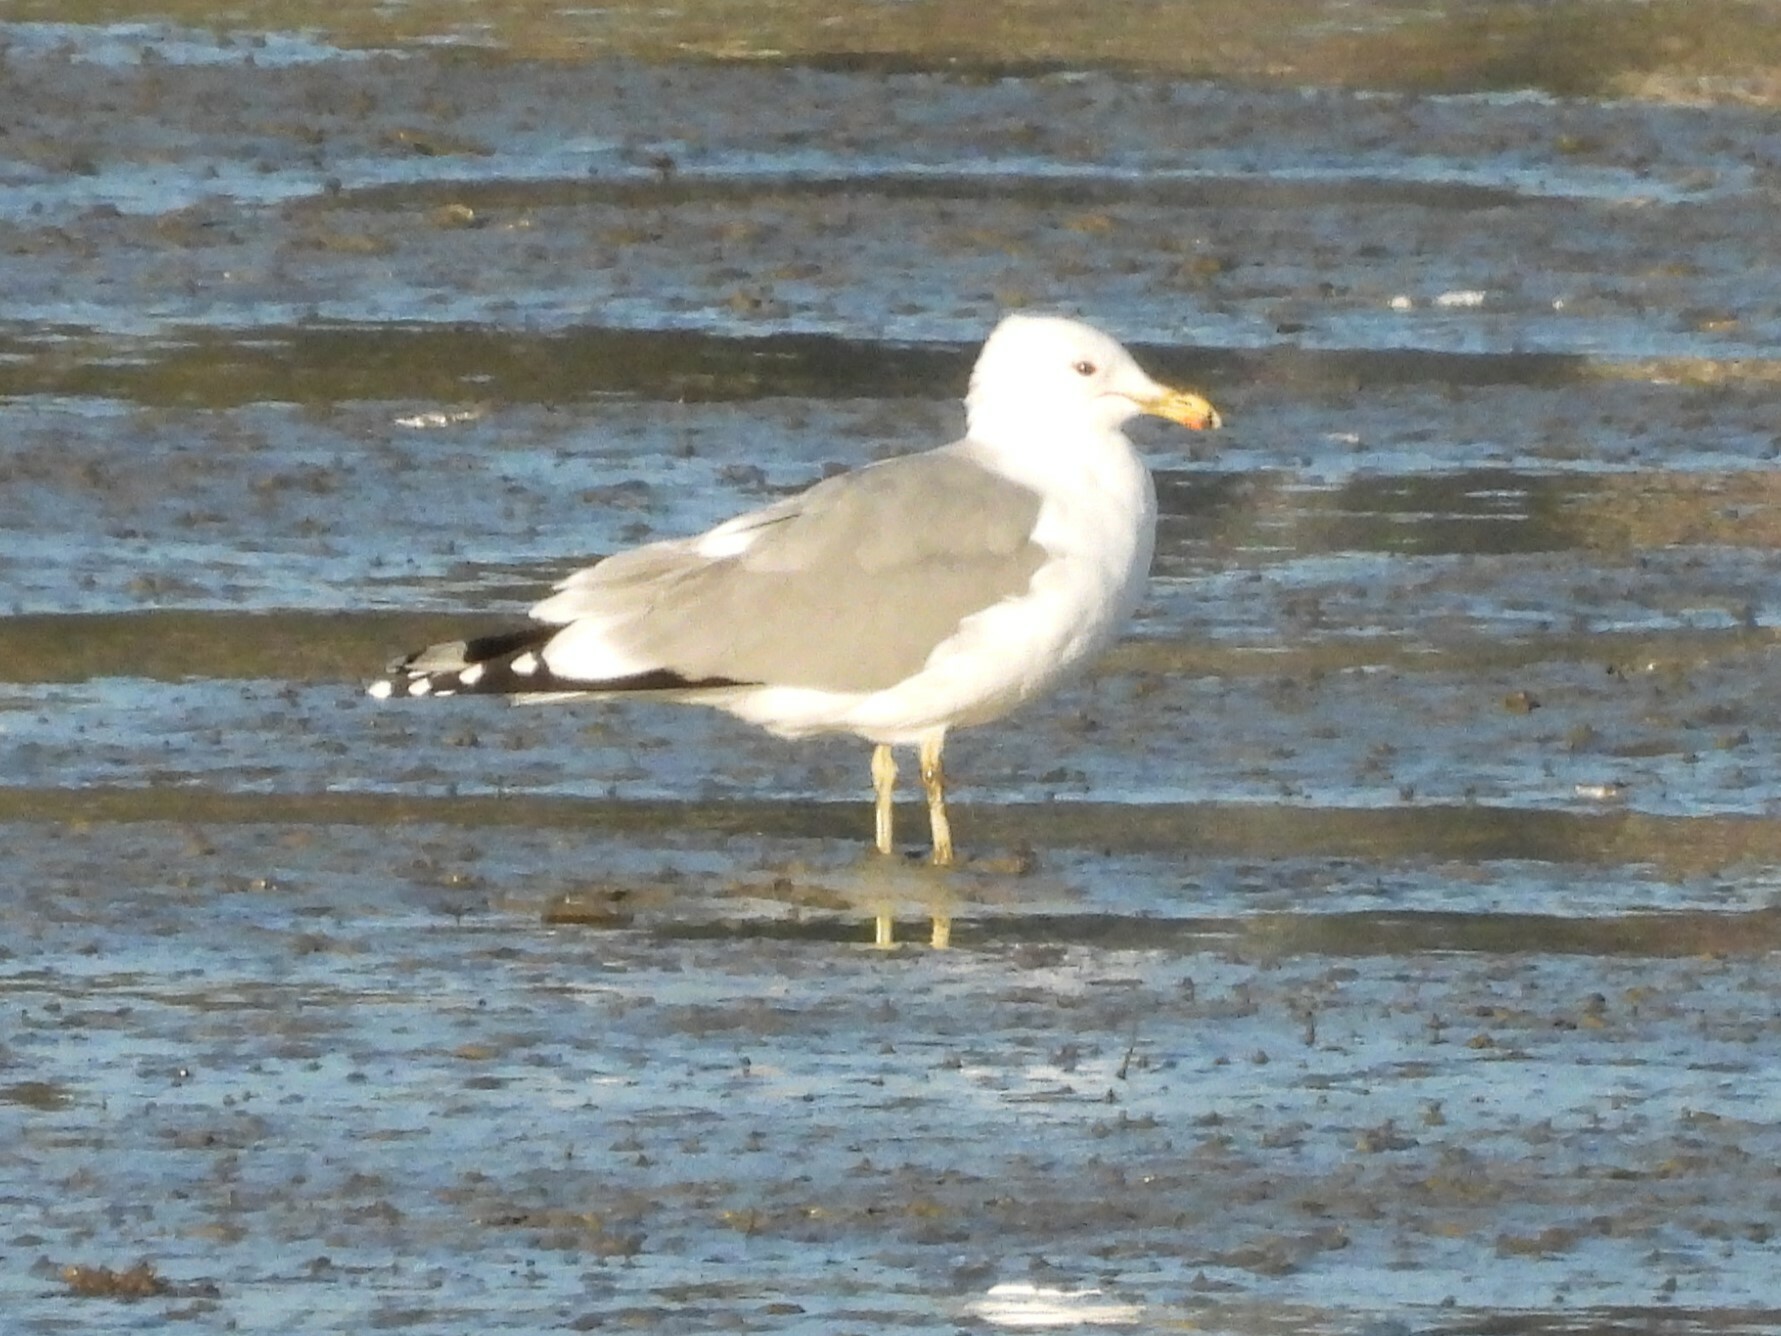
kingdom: Animalia
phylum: Chordata
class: Aves
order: Charadriiformes
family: Laridae
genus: Larus
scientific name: Larus californicus
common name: California gull
